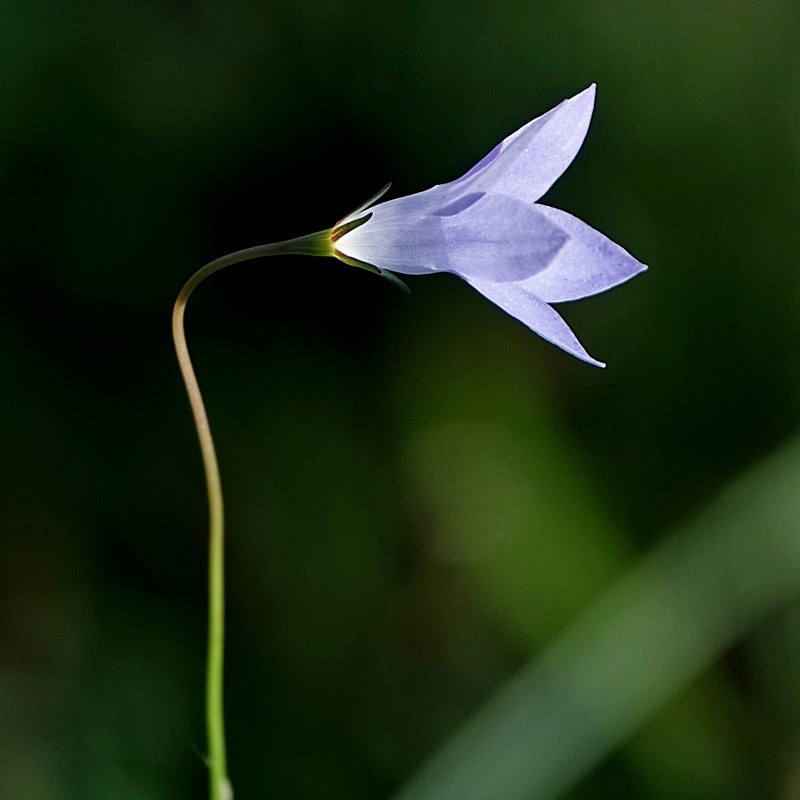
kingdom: Plantae
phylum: Tracheophyta
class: Magnoliopsida
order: Asterales
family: Campanulaceae
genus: Wahlenbergia
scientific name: Wahlenbergia capillaris
